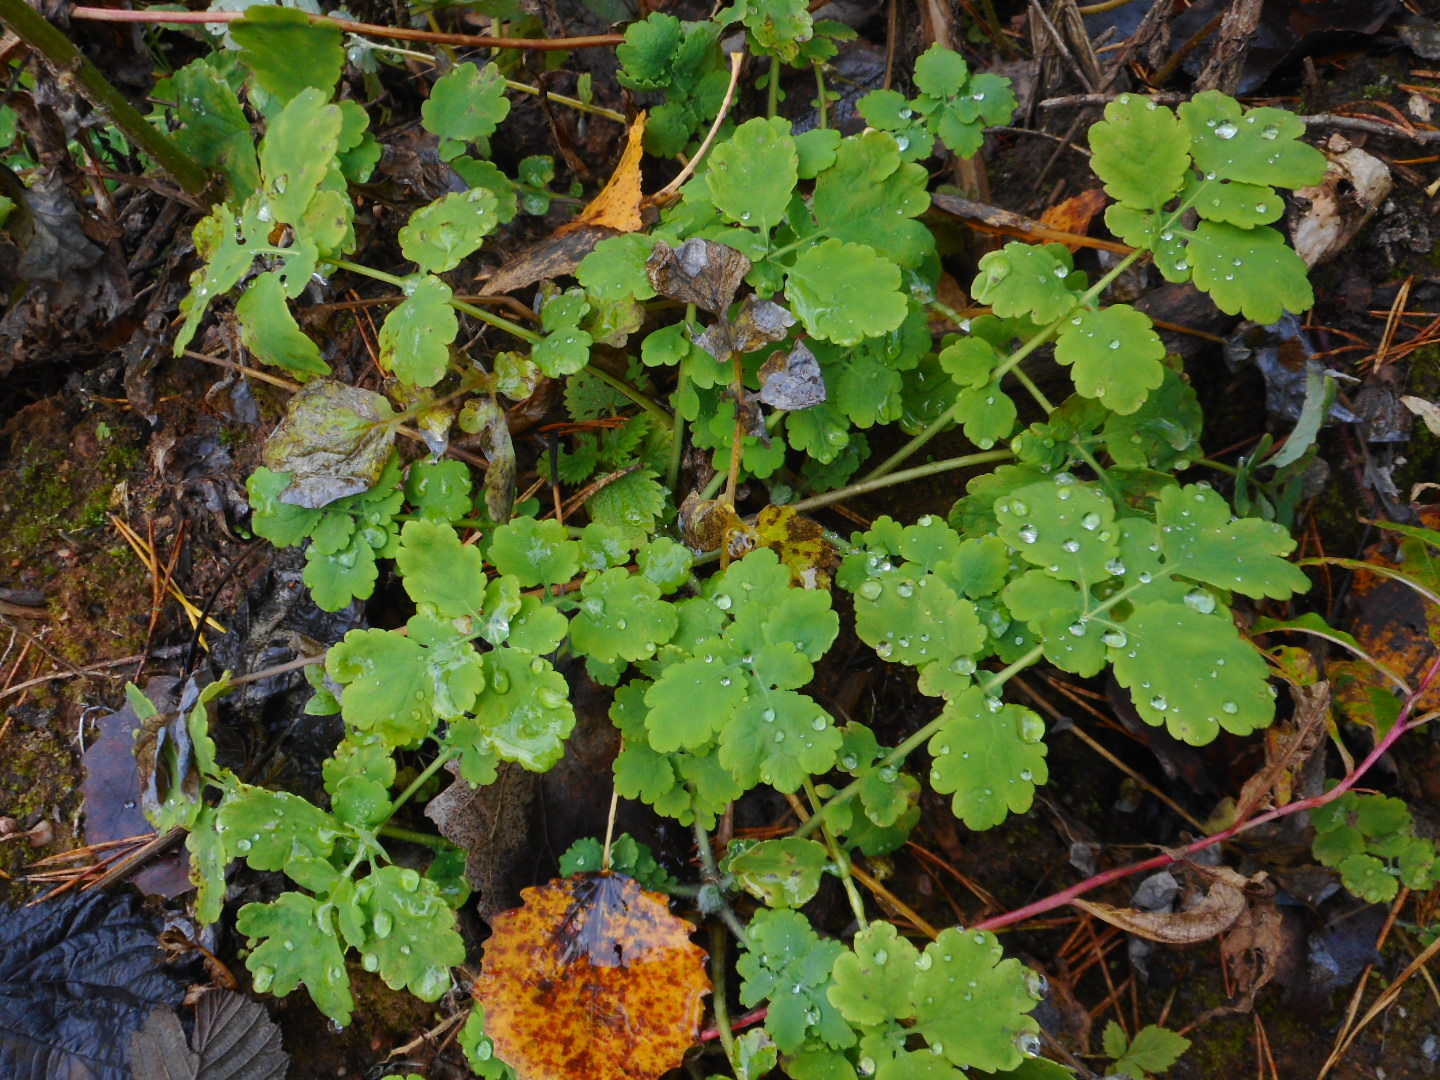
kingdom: Plantae
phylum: Tracheophyta
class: Magnoliopsida
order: Ranunculales
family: Papaveraceae
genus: Chelidonium
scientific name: Chelidonium majus
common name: Greater celandine
